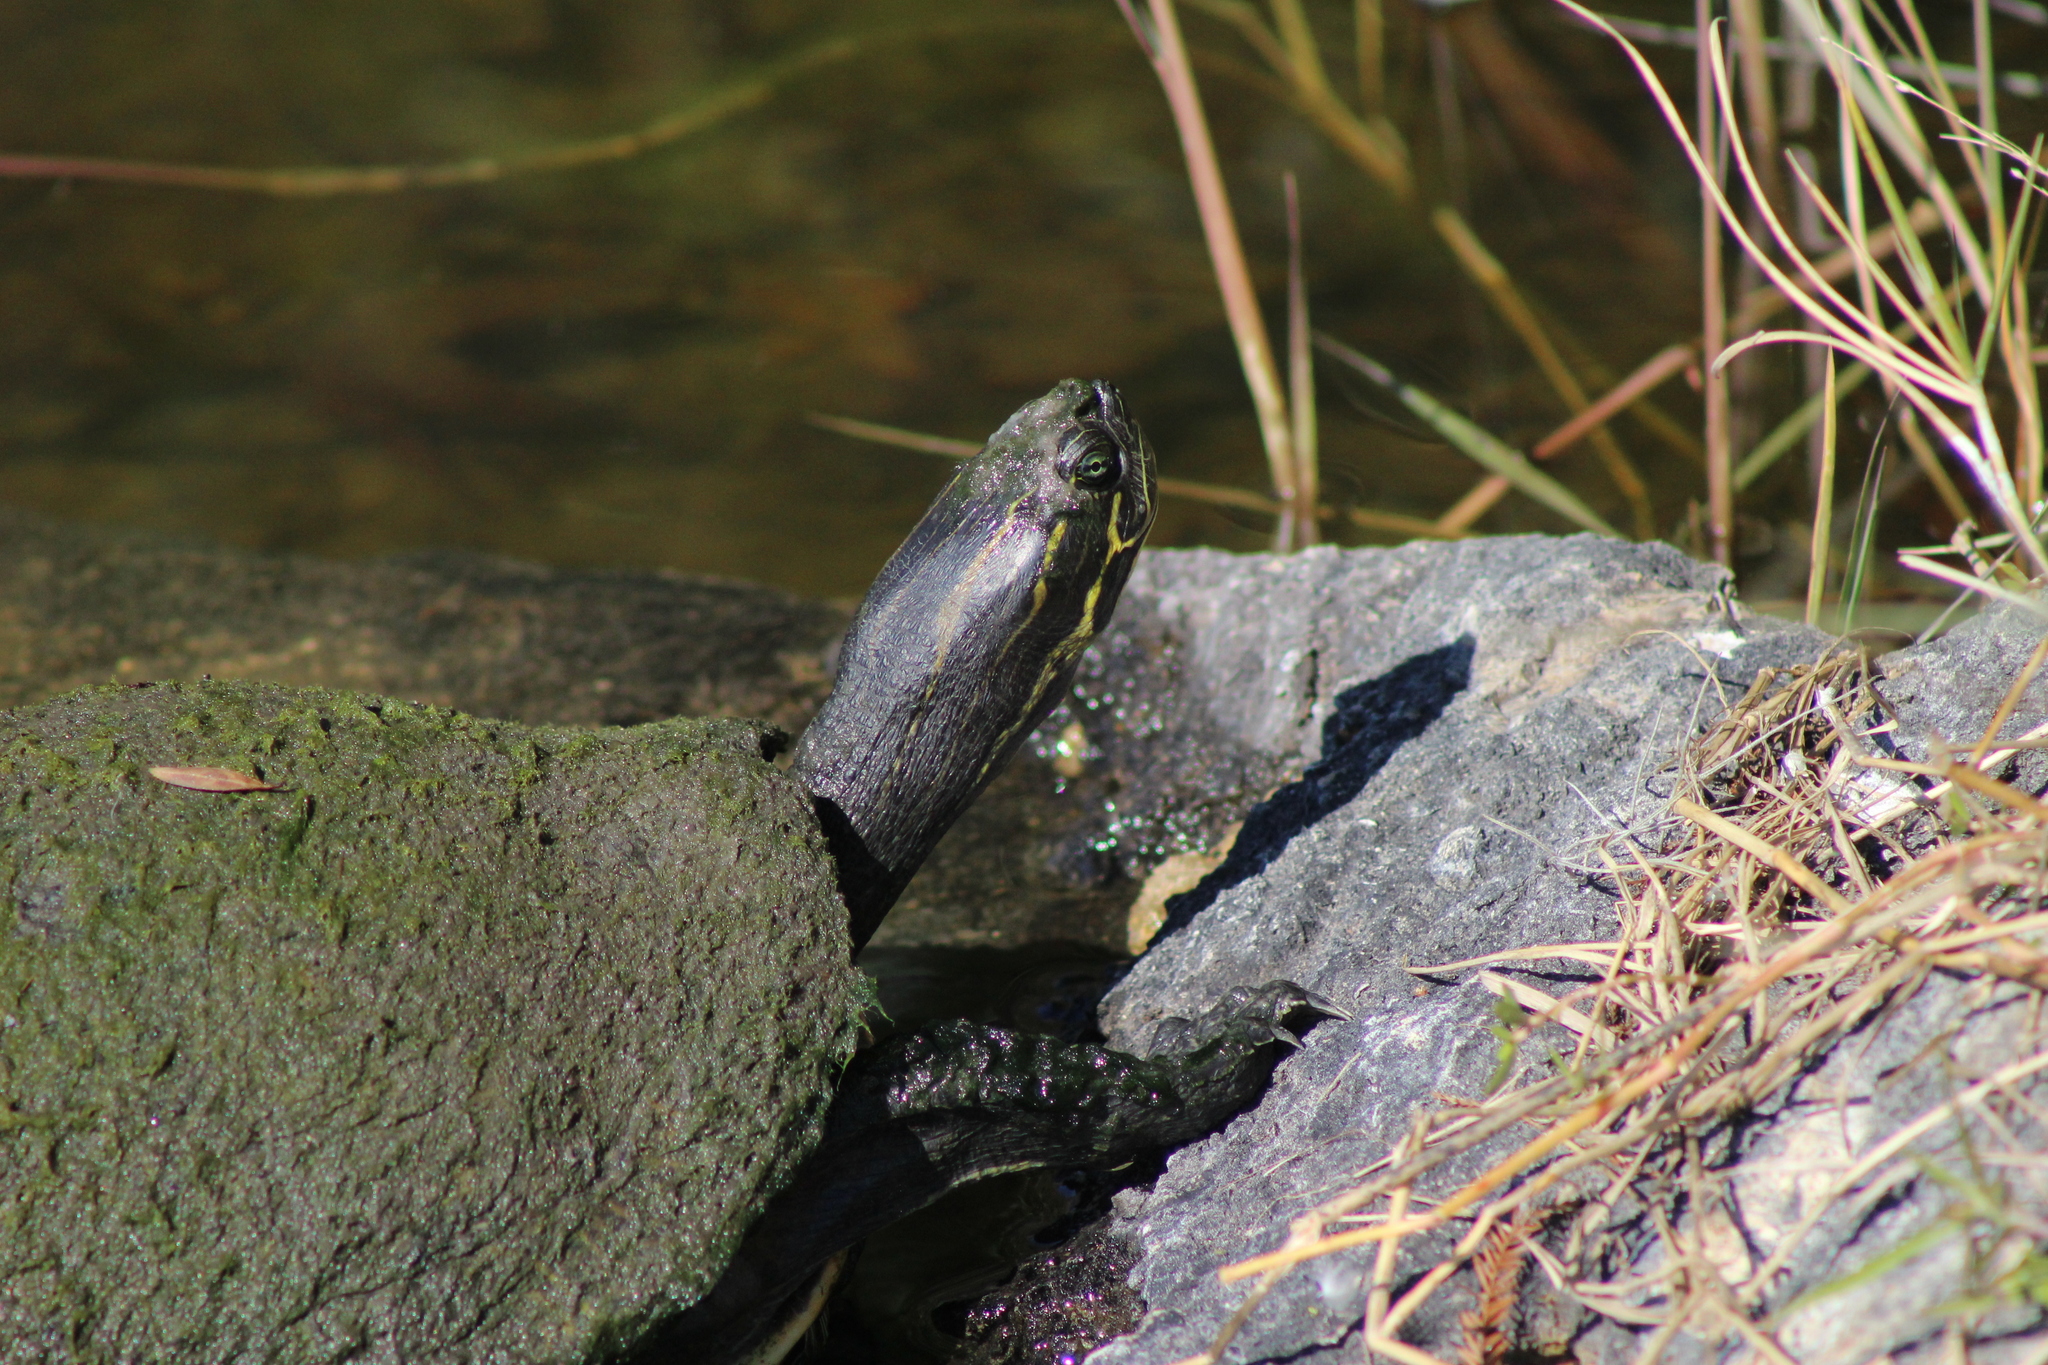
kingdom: Animalia
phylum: Chordata
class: Testudines
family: Emydidae
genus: Pseudemys
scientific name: Pseudemys nelsoni
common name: Florida red-bellied turtle
